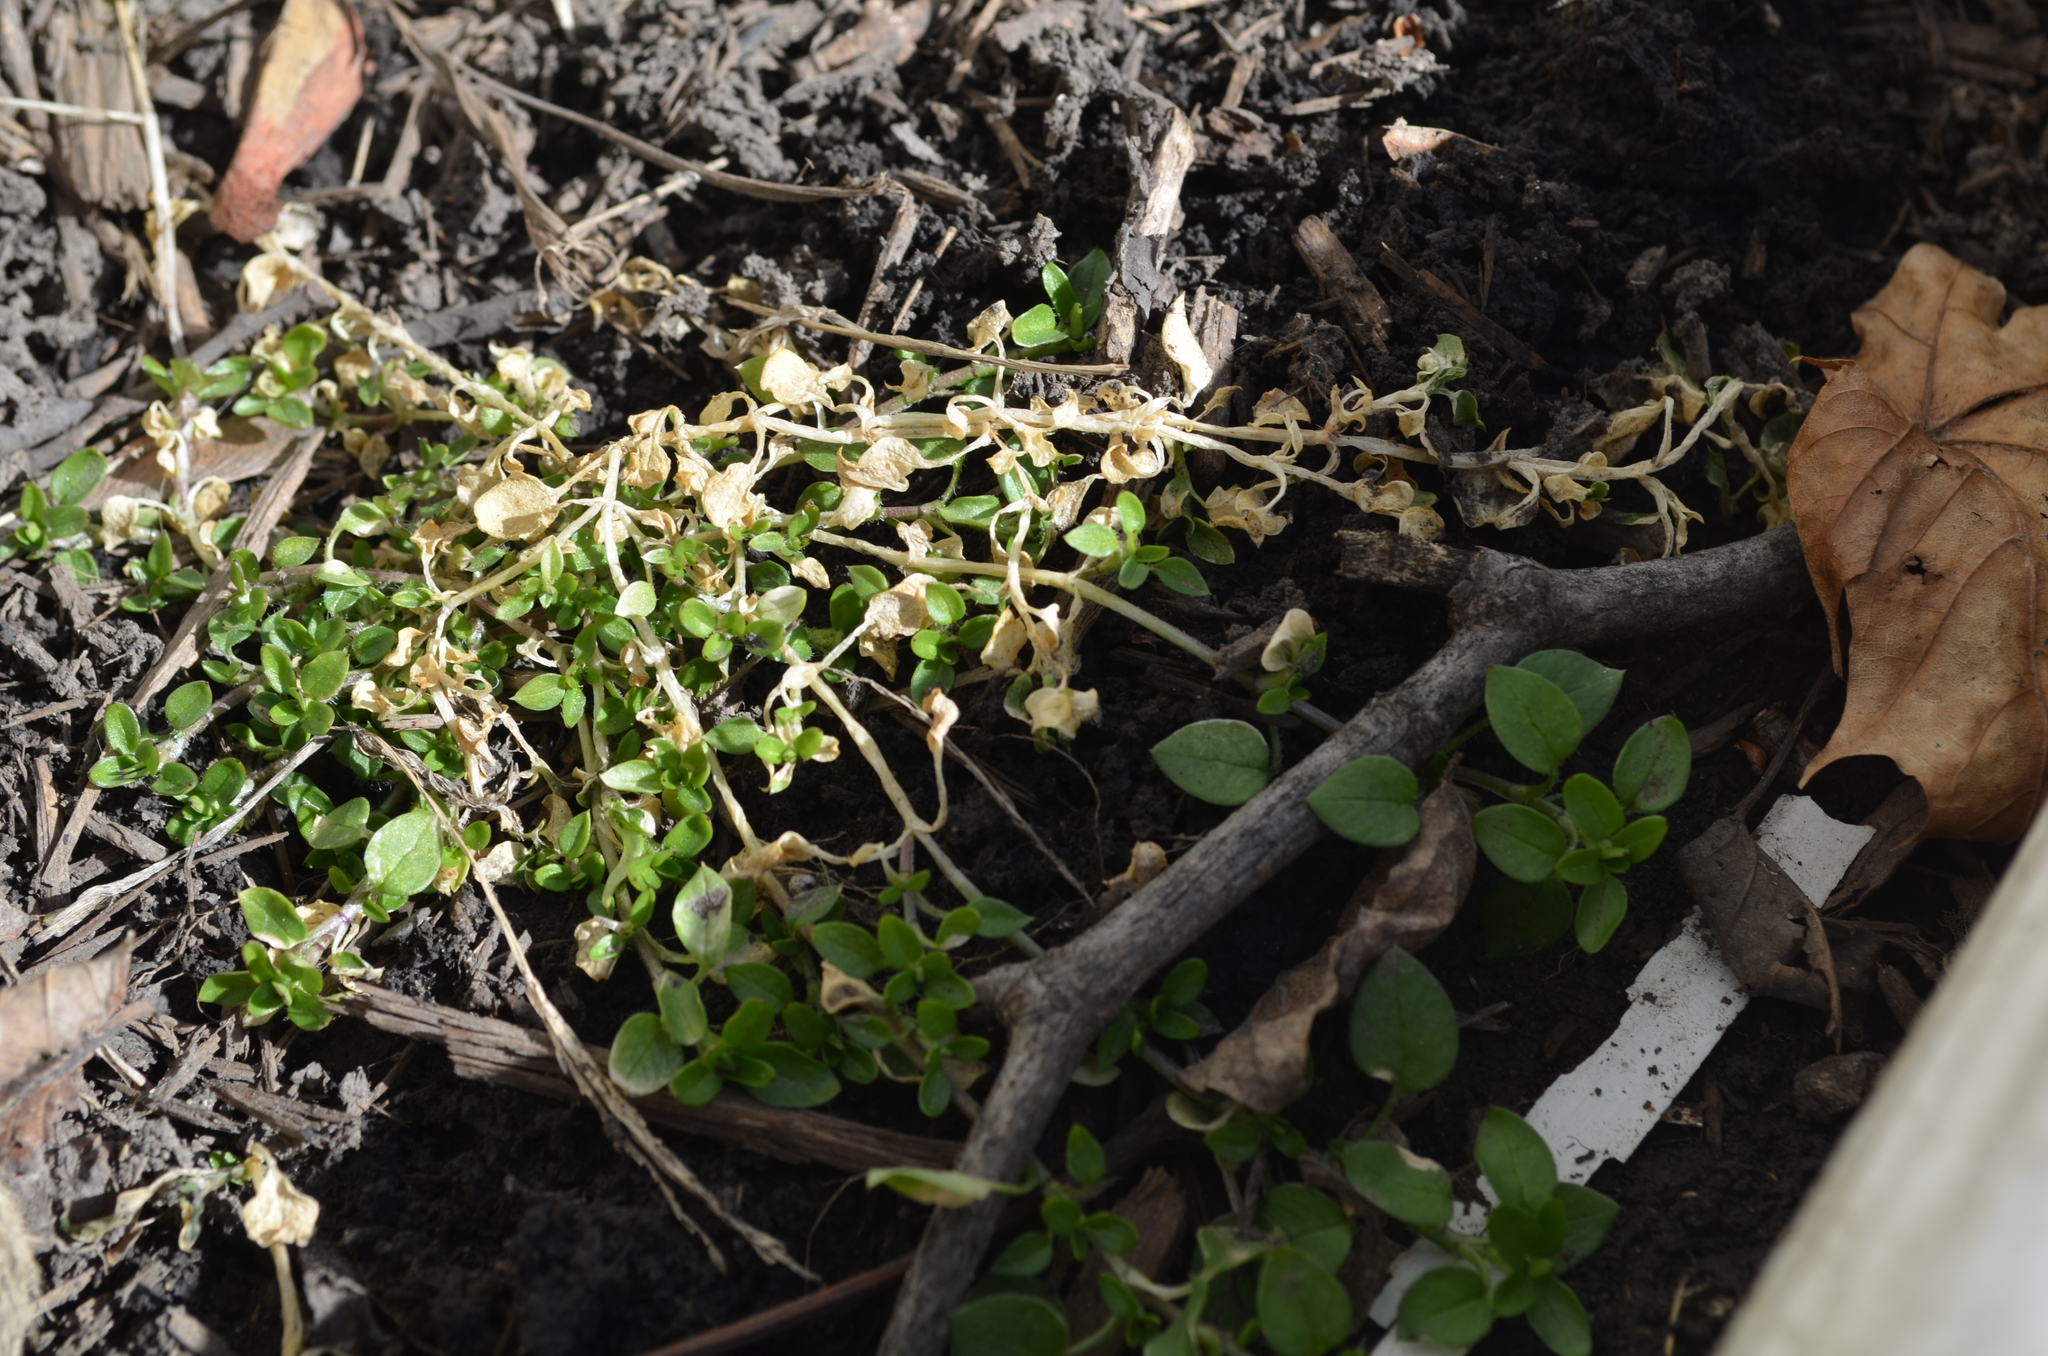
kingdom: Plantae
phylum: Tracheophyta
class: Magnoliopsida
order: Caryophyllales
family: Caryophyllaceae
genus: Stellaria
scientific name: Stellaria media
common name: Common chickweed
